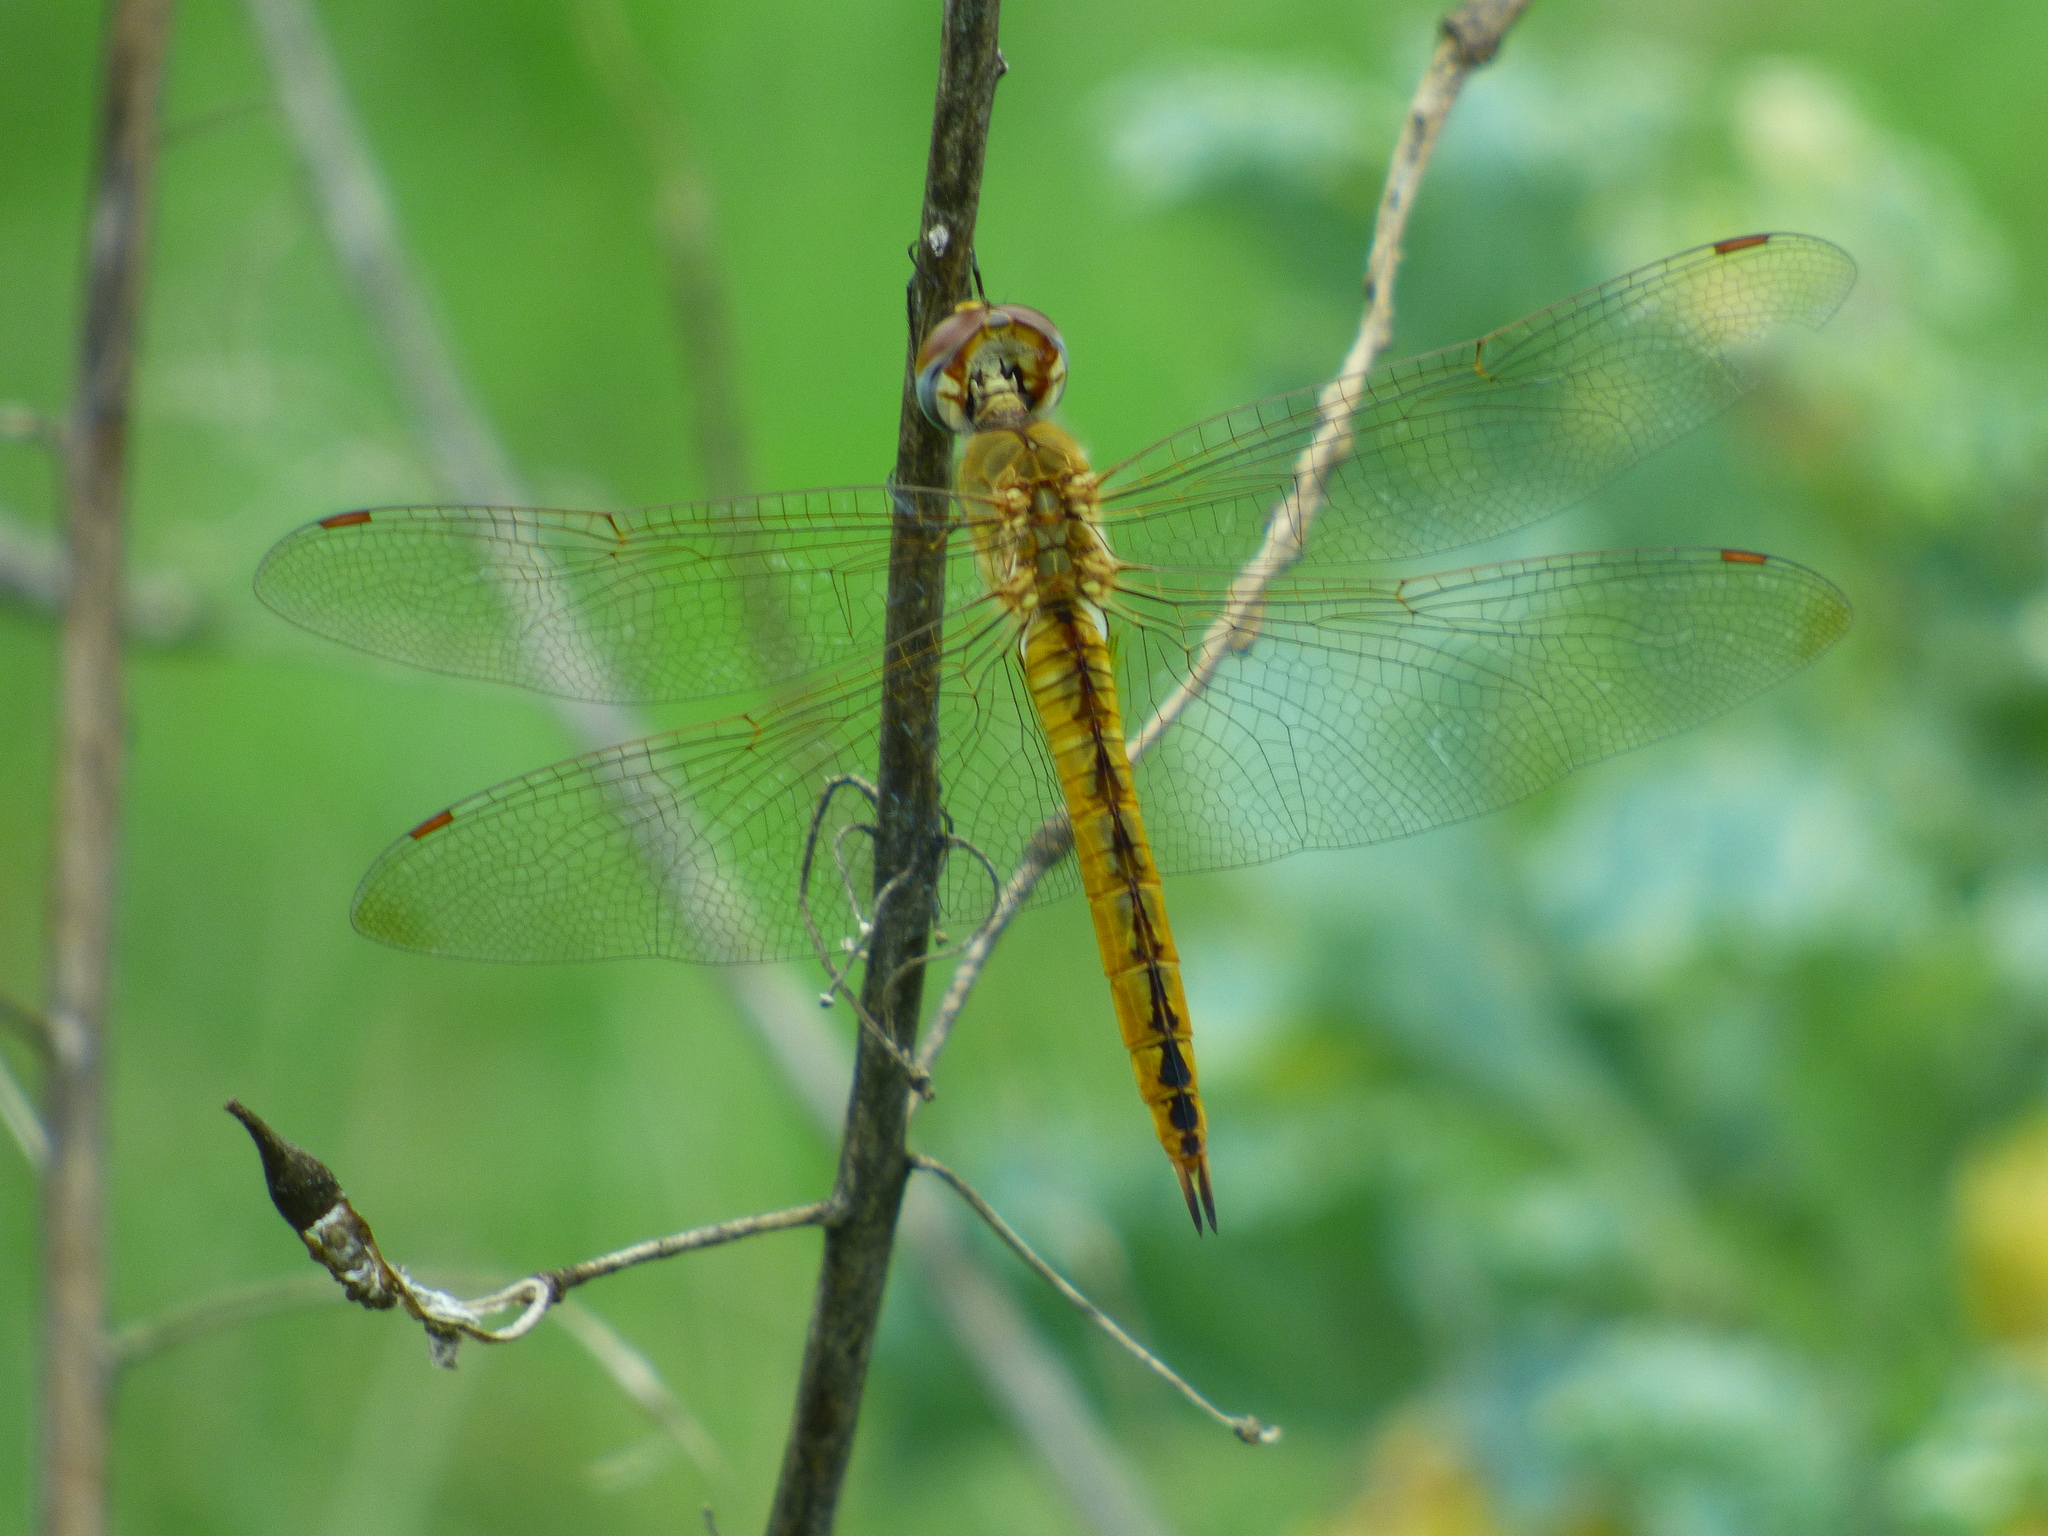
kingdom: Animalia
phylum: Arthropoda
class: Insecta
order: Odonata
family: Libellulidae
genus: Pantala
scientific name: Pantala flavescens
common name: Wandering glider
